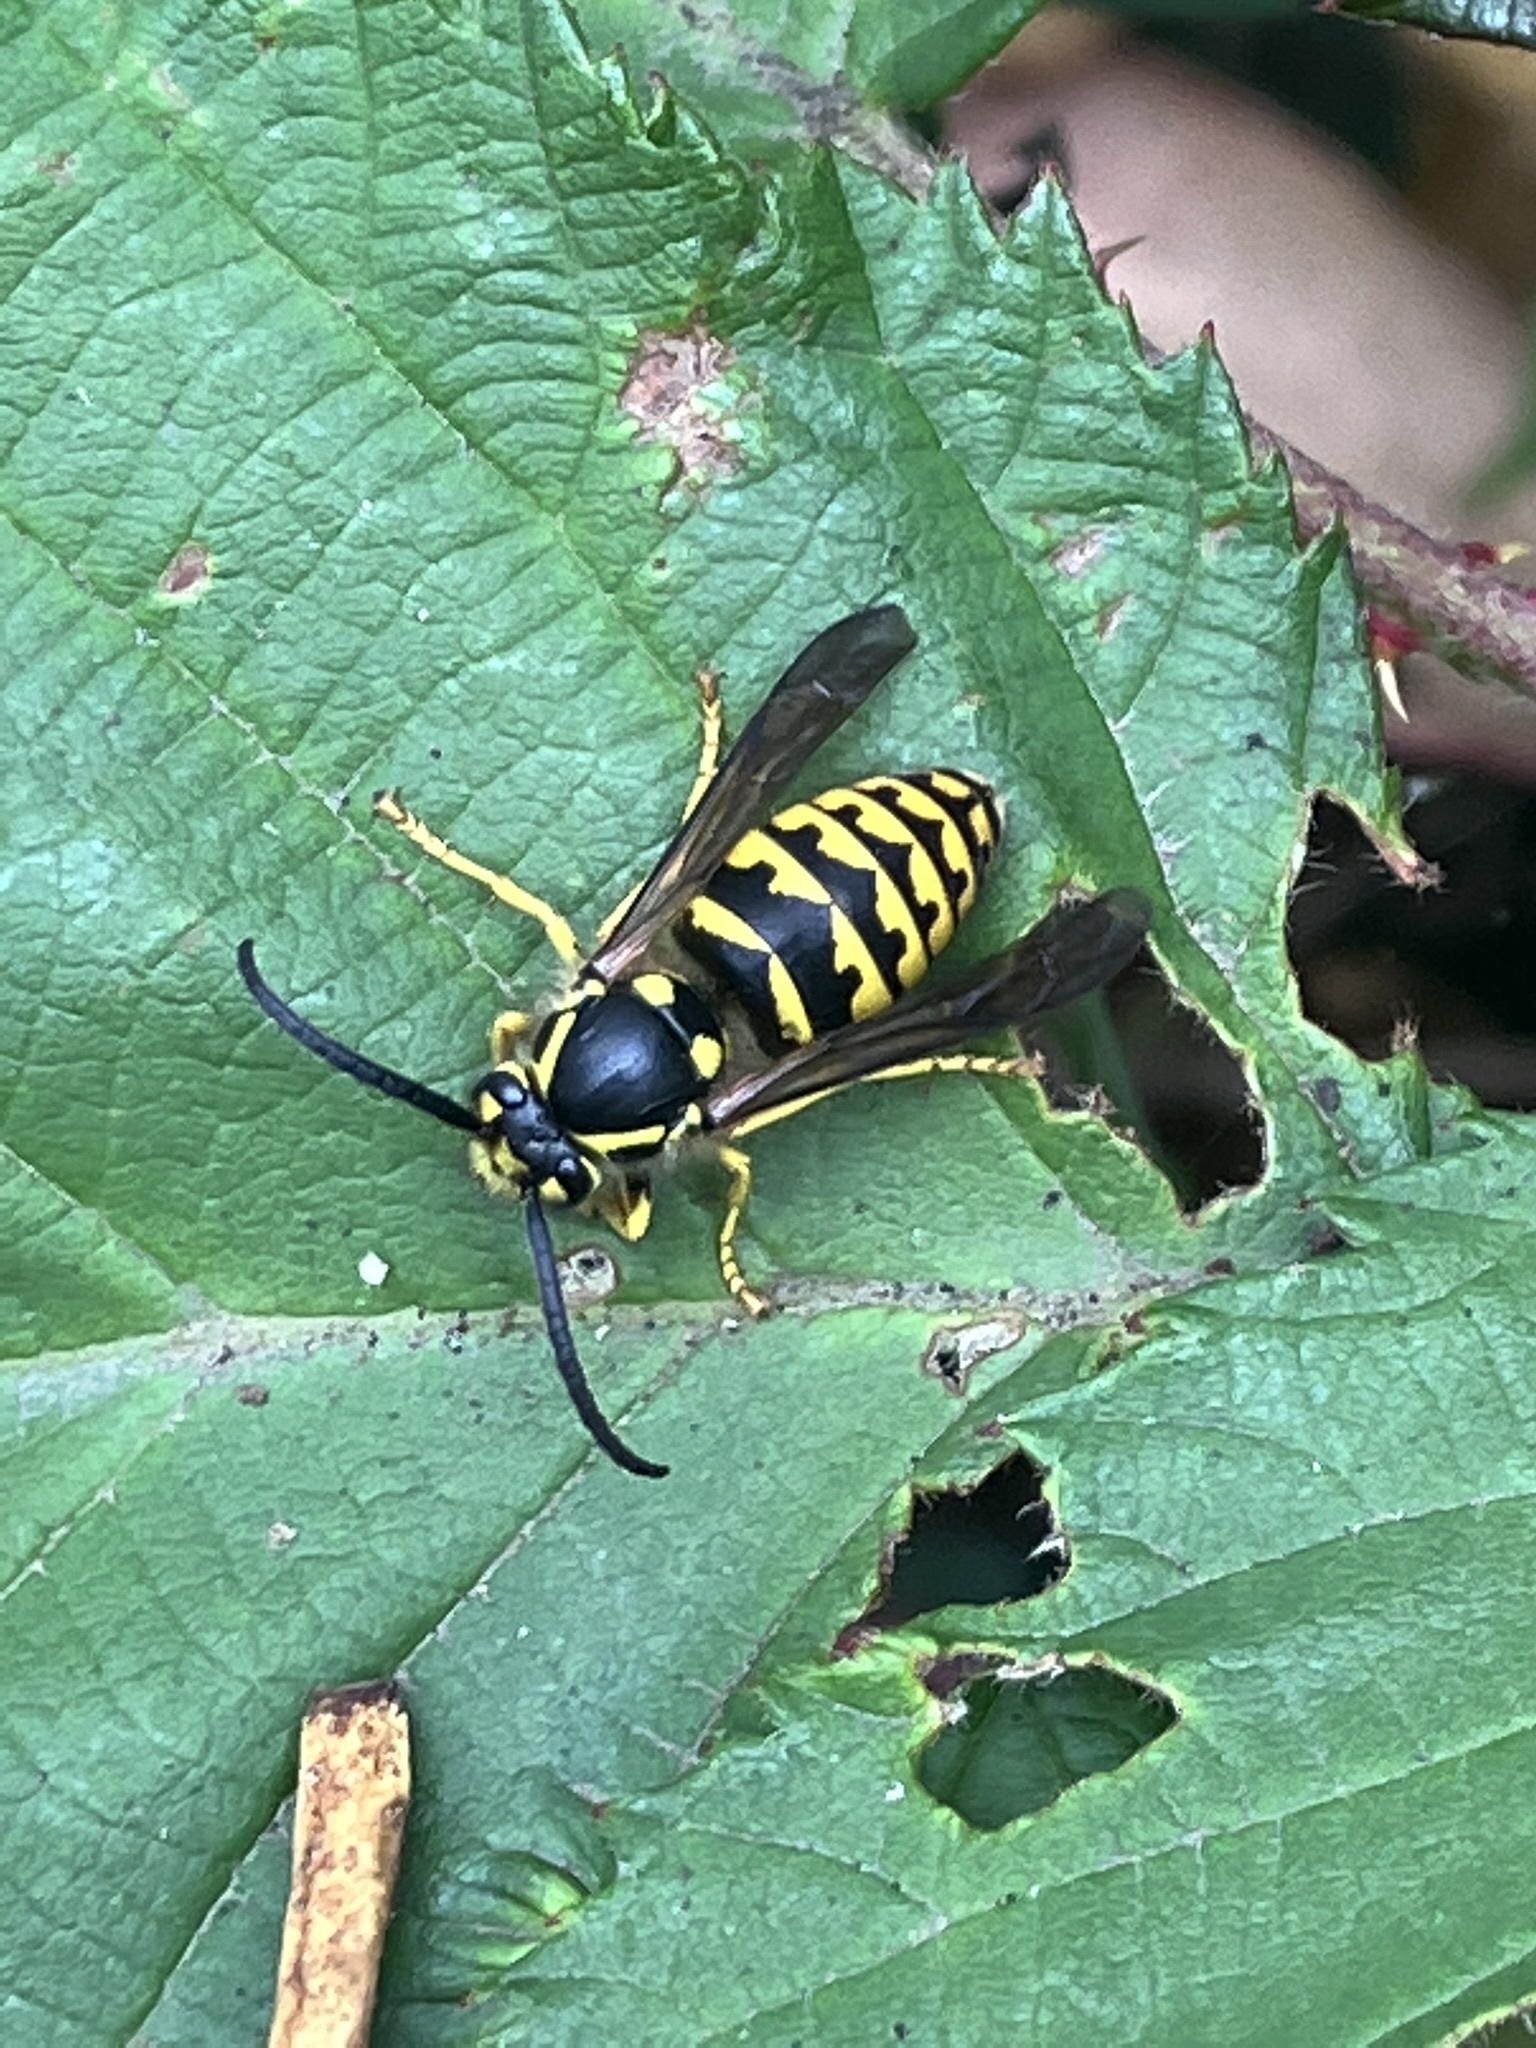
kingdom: Animalia
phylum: Arthropoda
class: Insecta
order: Hymenoptera
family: Vespidae
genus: Dolichovespula
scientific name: Dolichovespula arenaria
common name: Aerial yellowjacket
